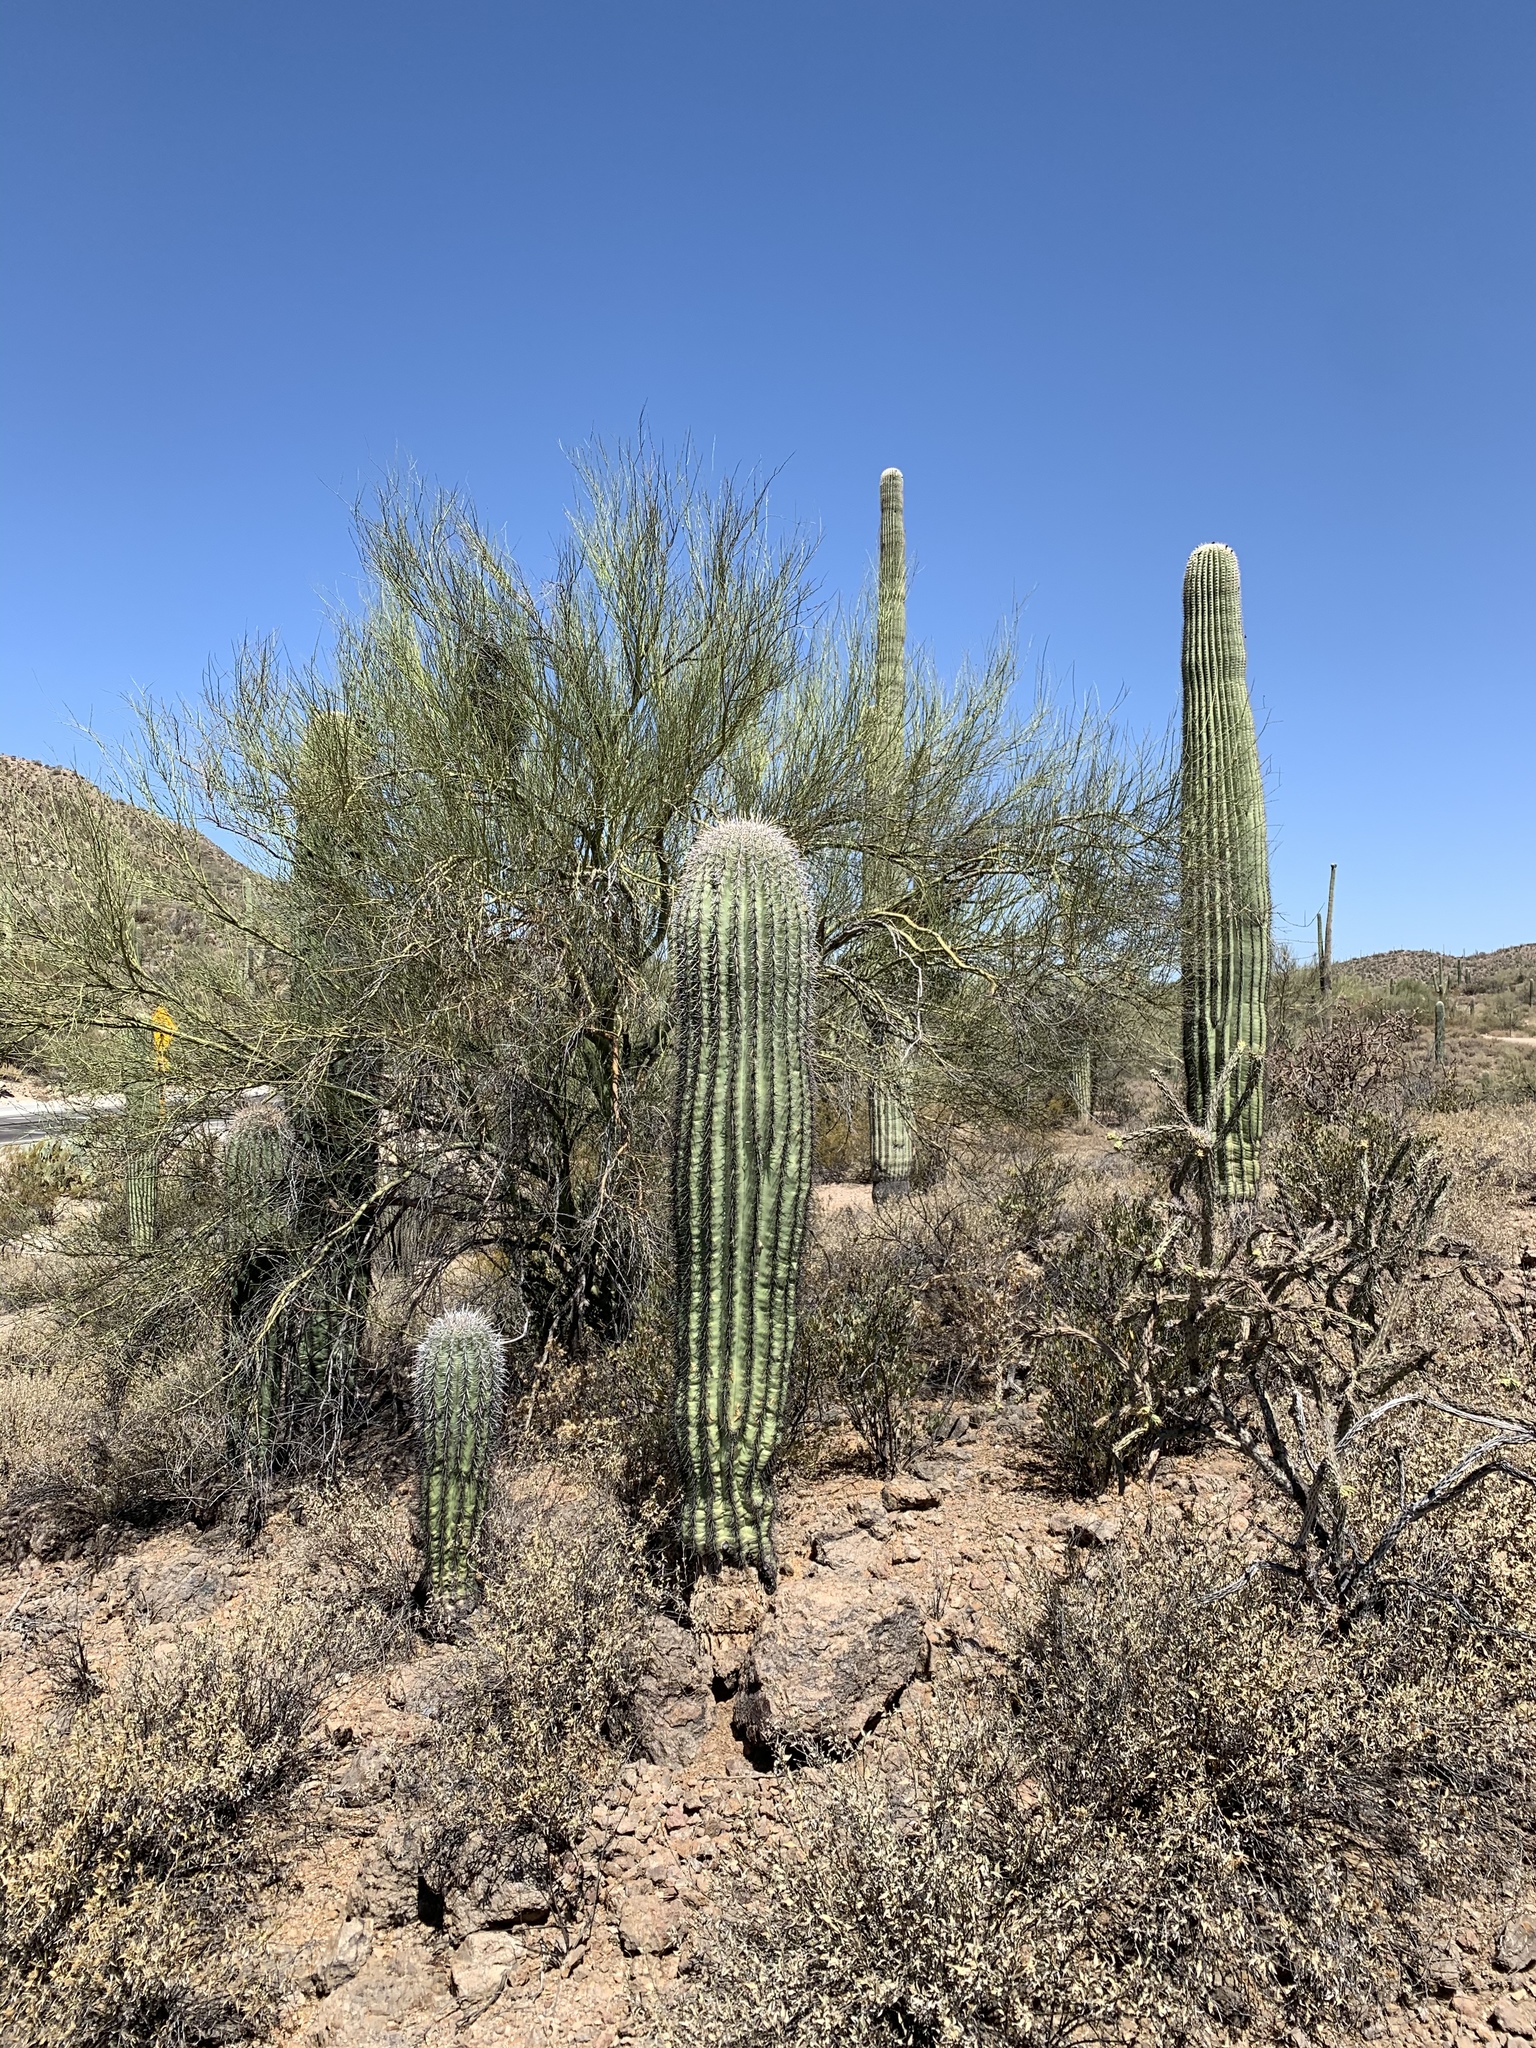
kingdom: Plantae
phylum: Tracheophyta
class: Magnoliopsida
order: Caryophyllales
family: Cactaceae
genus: Carnegiea
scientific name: Carnegiea gigantea
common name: Saguaro
